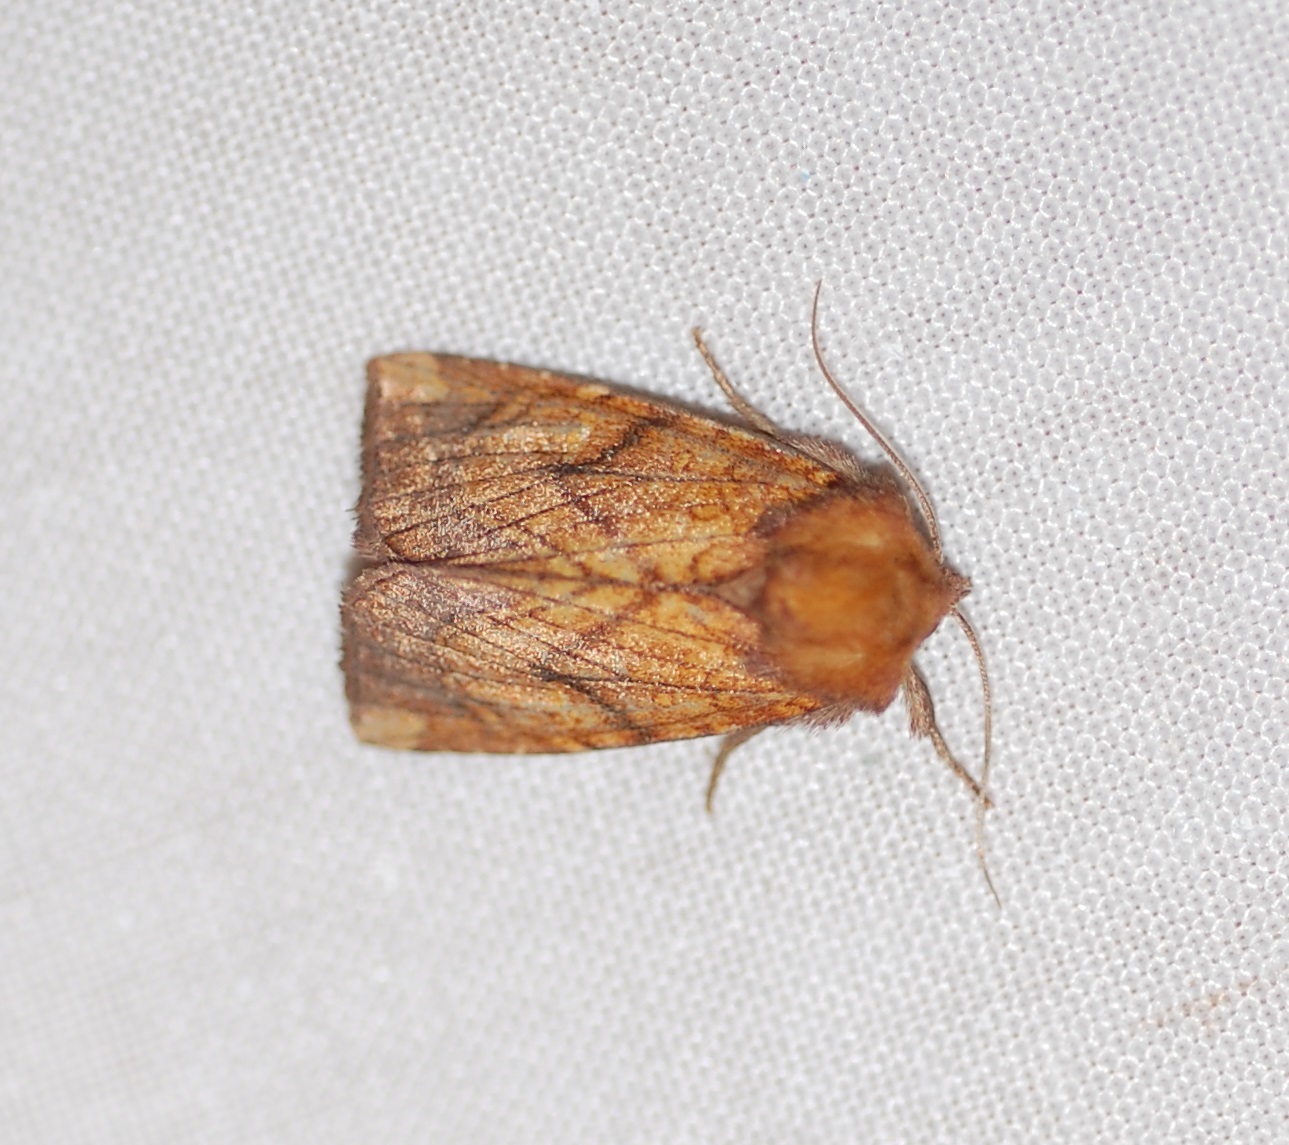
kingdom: Animalia
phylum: Arthropoda
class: Insecta
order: Lepidoptera
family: Noctuidae
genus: Papaipema
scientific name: Papaipema inquaesita
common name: Sensitive fern borer moth
